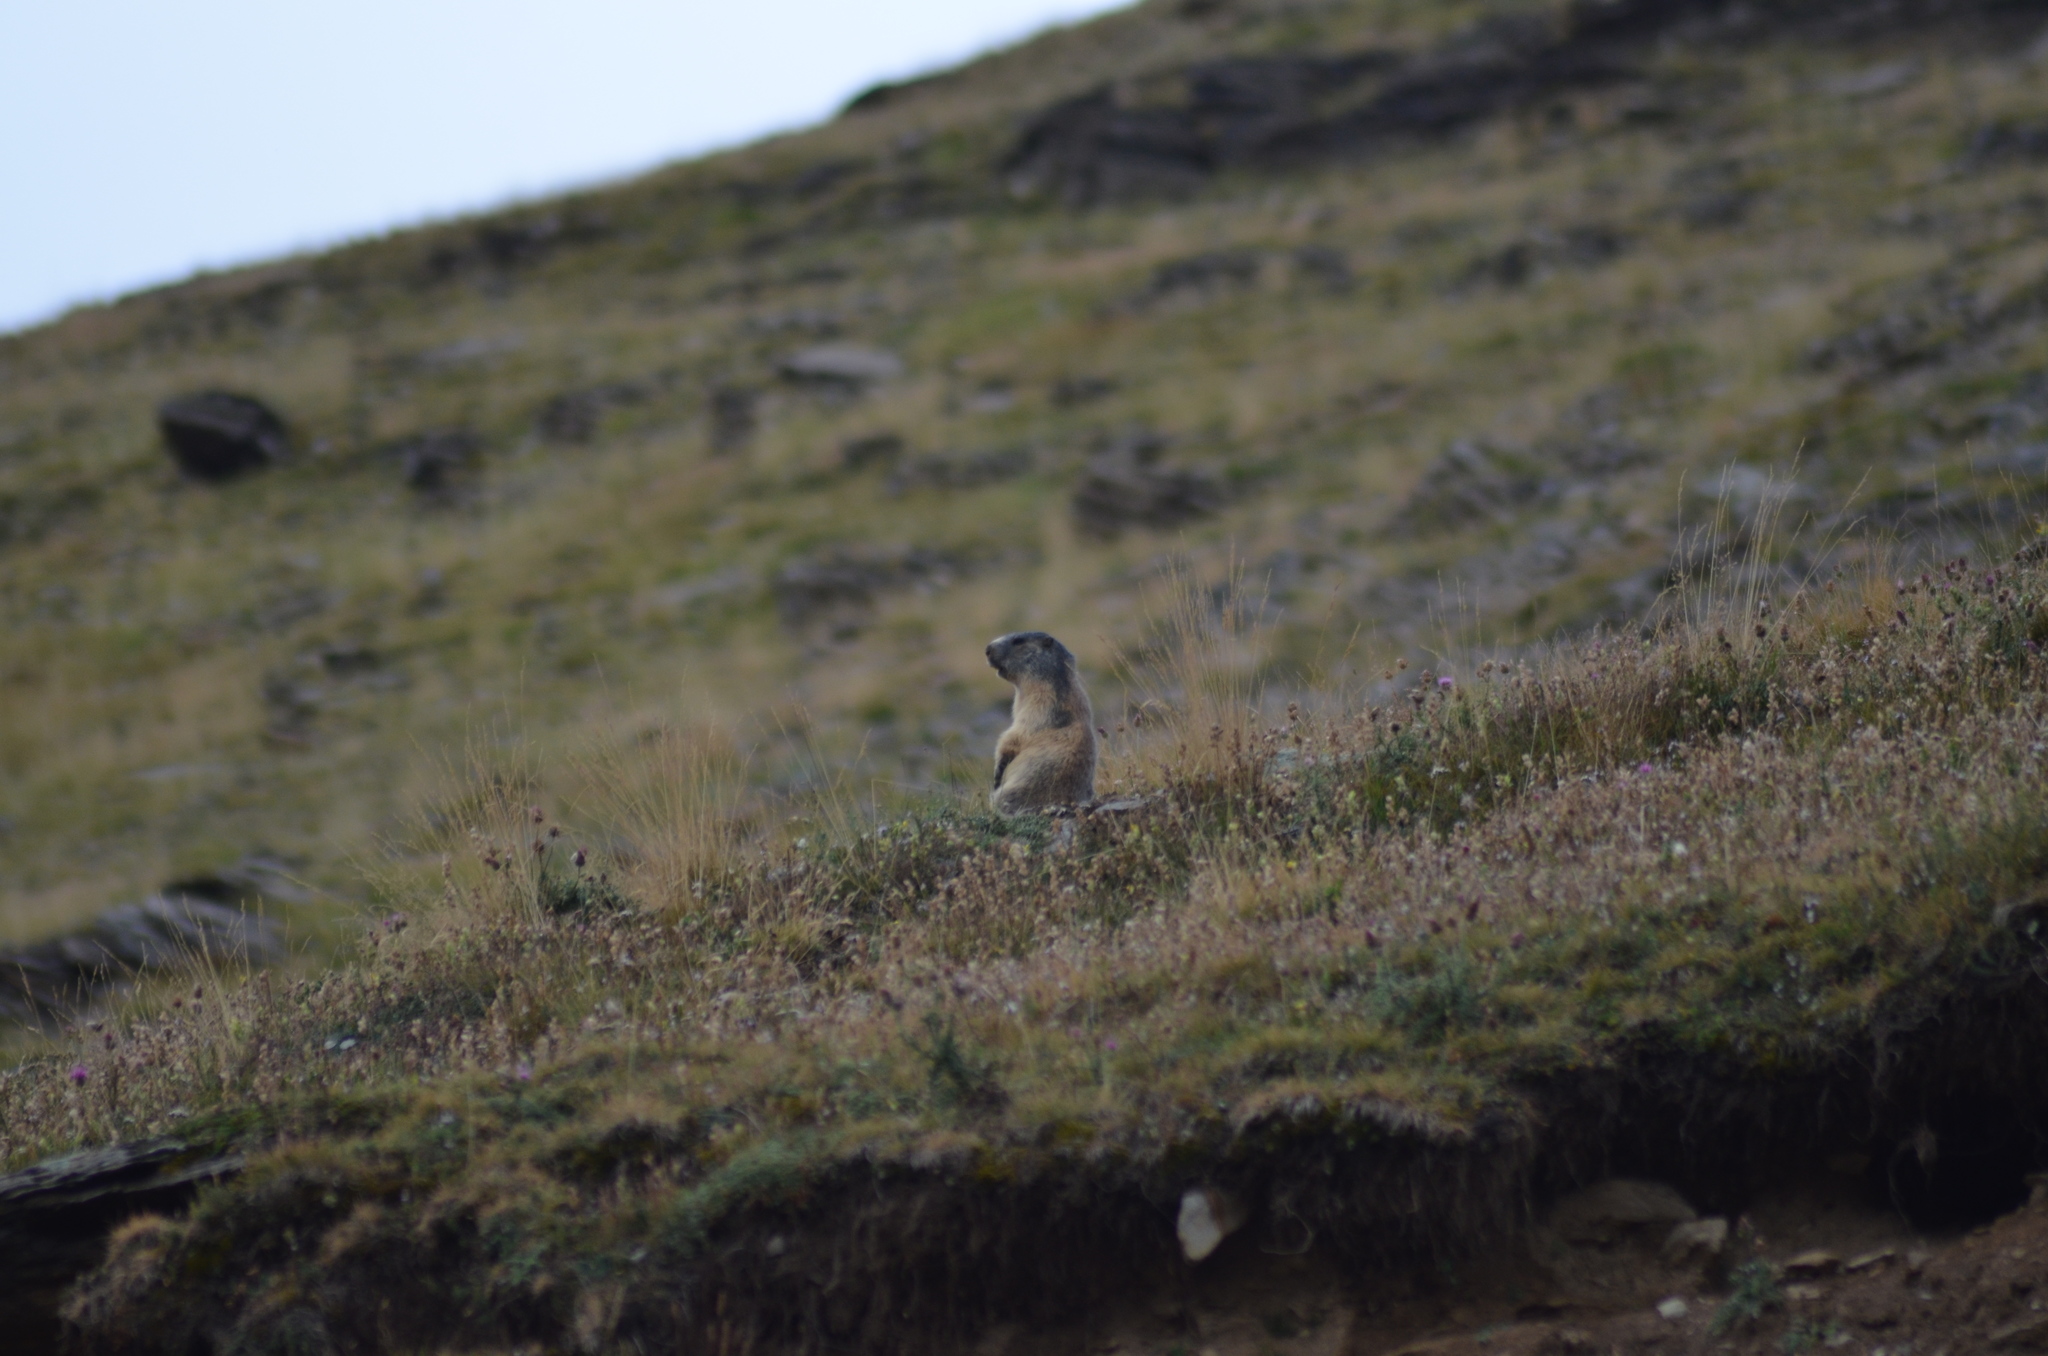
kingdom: Animalia
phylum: Chordata
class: Mammalia
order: Rodentia
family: Sciuridae
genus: Marmota
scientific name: Marmota marmota
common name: Alpine marmot
